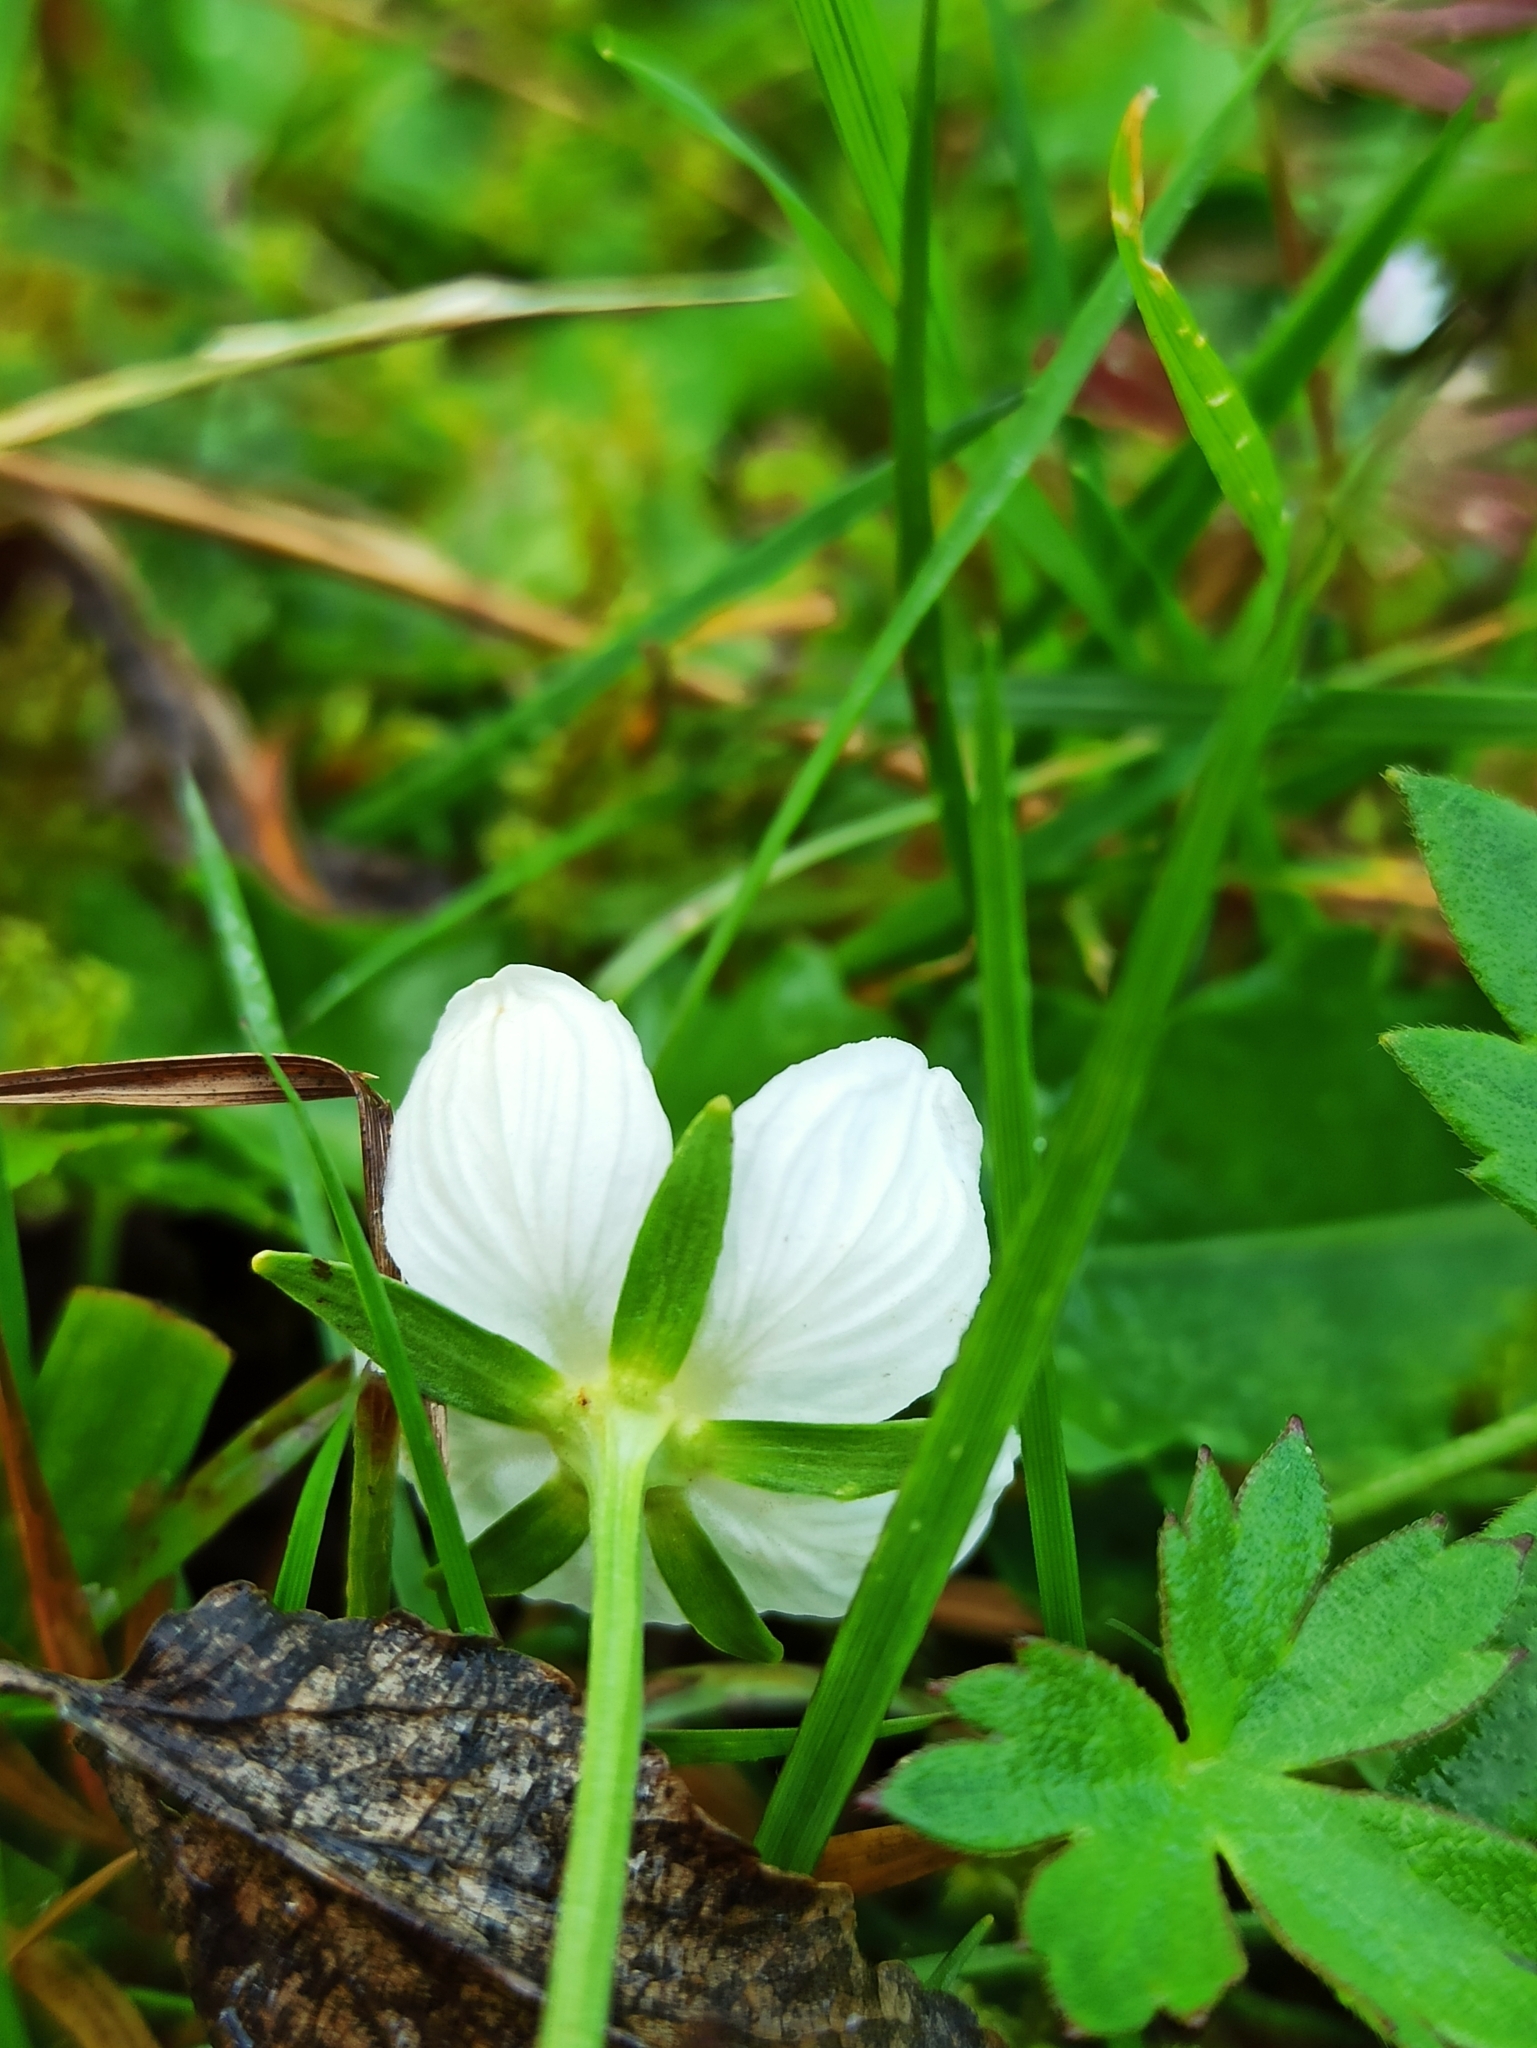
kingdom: Plantae
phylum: Tracheophyta
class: Magnoliopsida
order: Celastrales
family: Parnassiaceae
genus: Parnassia
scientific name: Parnassia palustris
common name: Grass-of-parnassus
